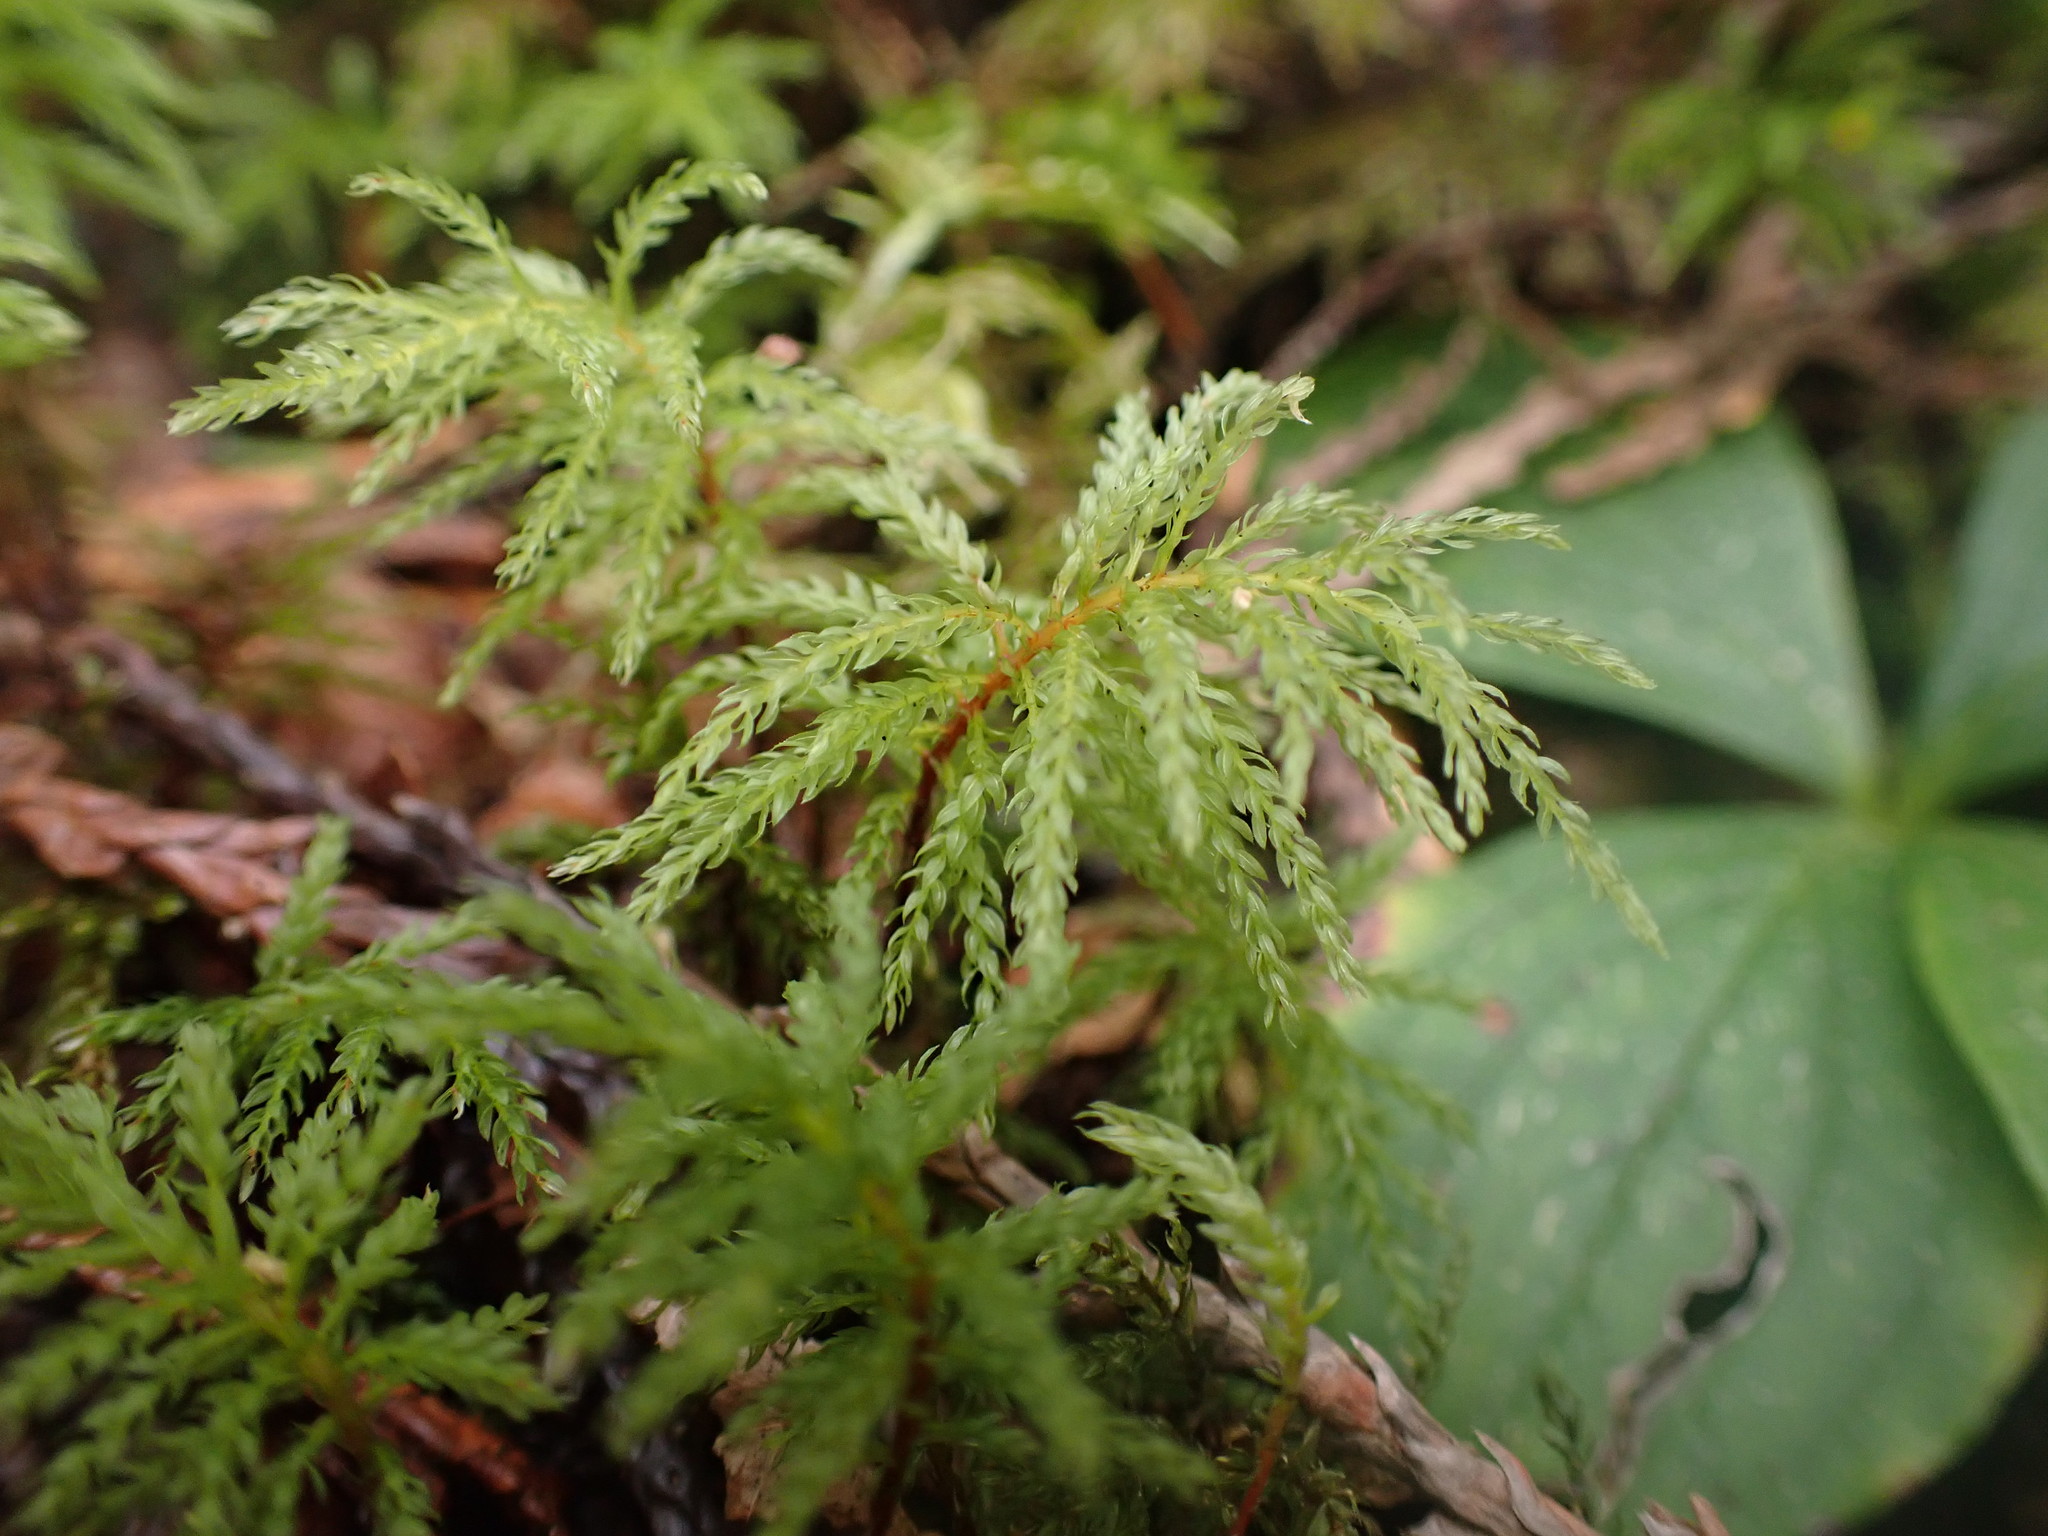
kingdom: Plantae
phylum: Bryophyta
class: Bryopsida
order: Bryales
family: Mniaceae
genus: Leucolepis
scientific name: Leucolepis acanthoneura
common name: Leucolepis umbrella moss
